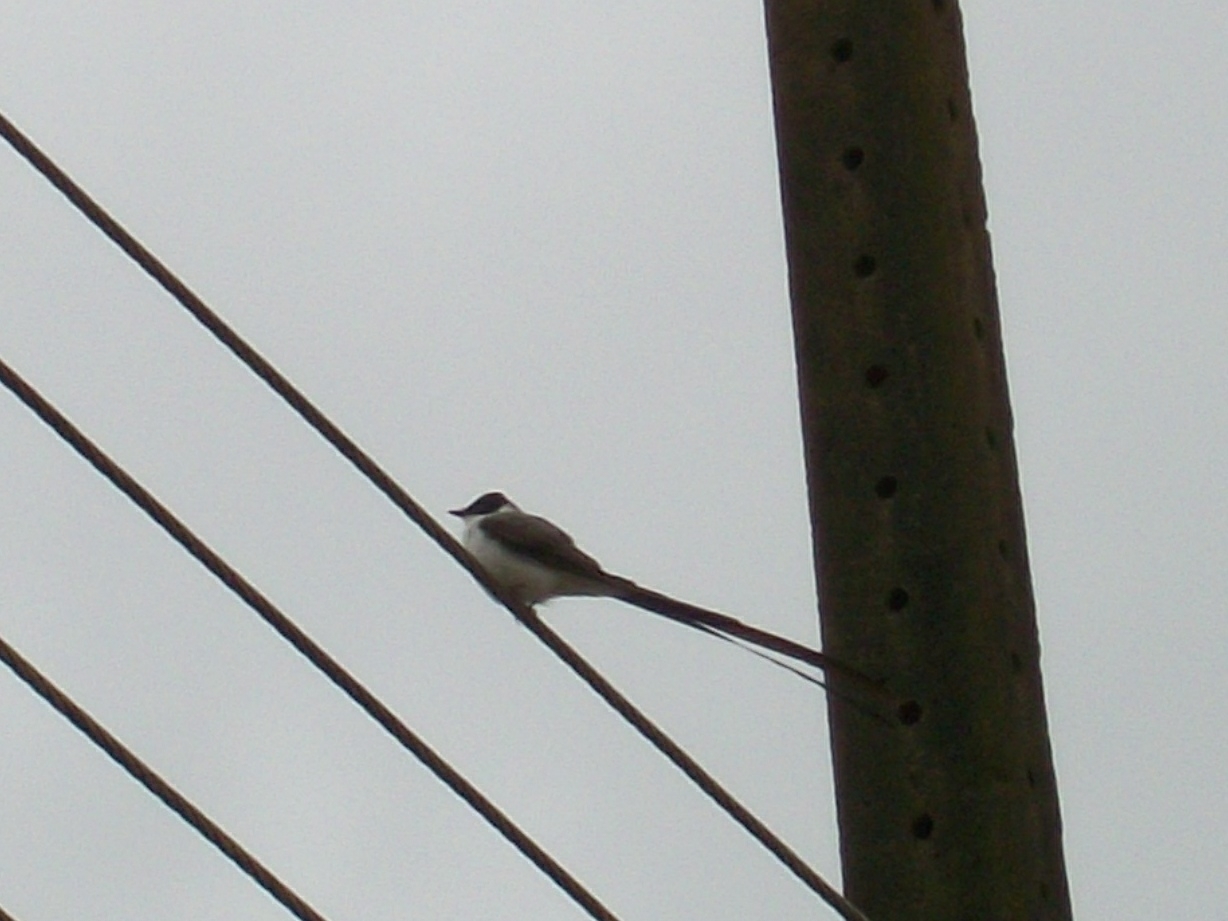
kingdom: Animalia
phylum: Chordata
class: Aves
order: Passeriformes
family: Tyrannidae
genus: Tyrannus
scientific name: Tyrannus savana
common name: Fork-tailed flycatcher
